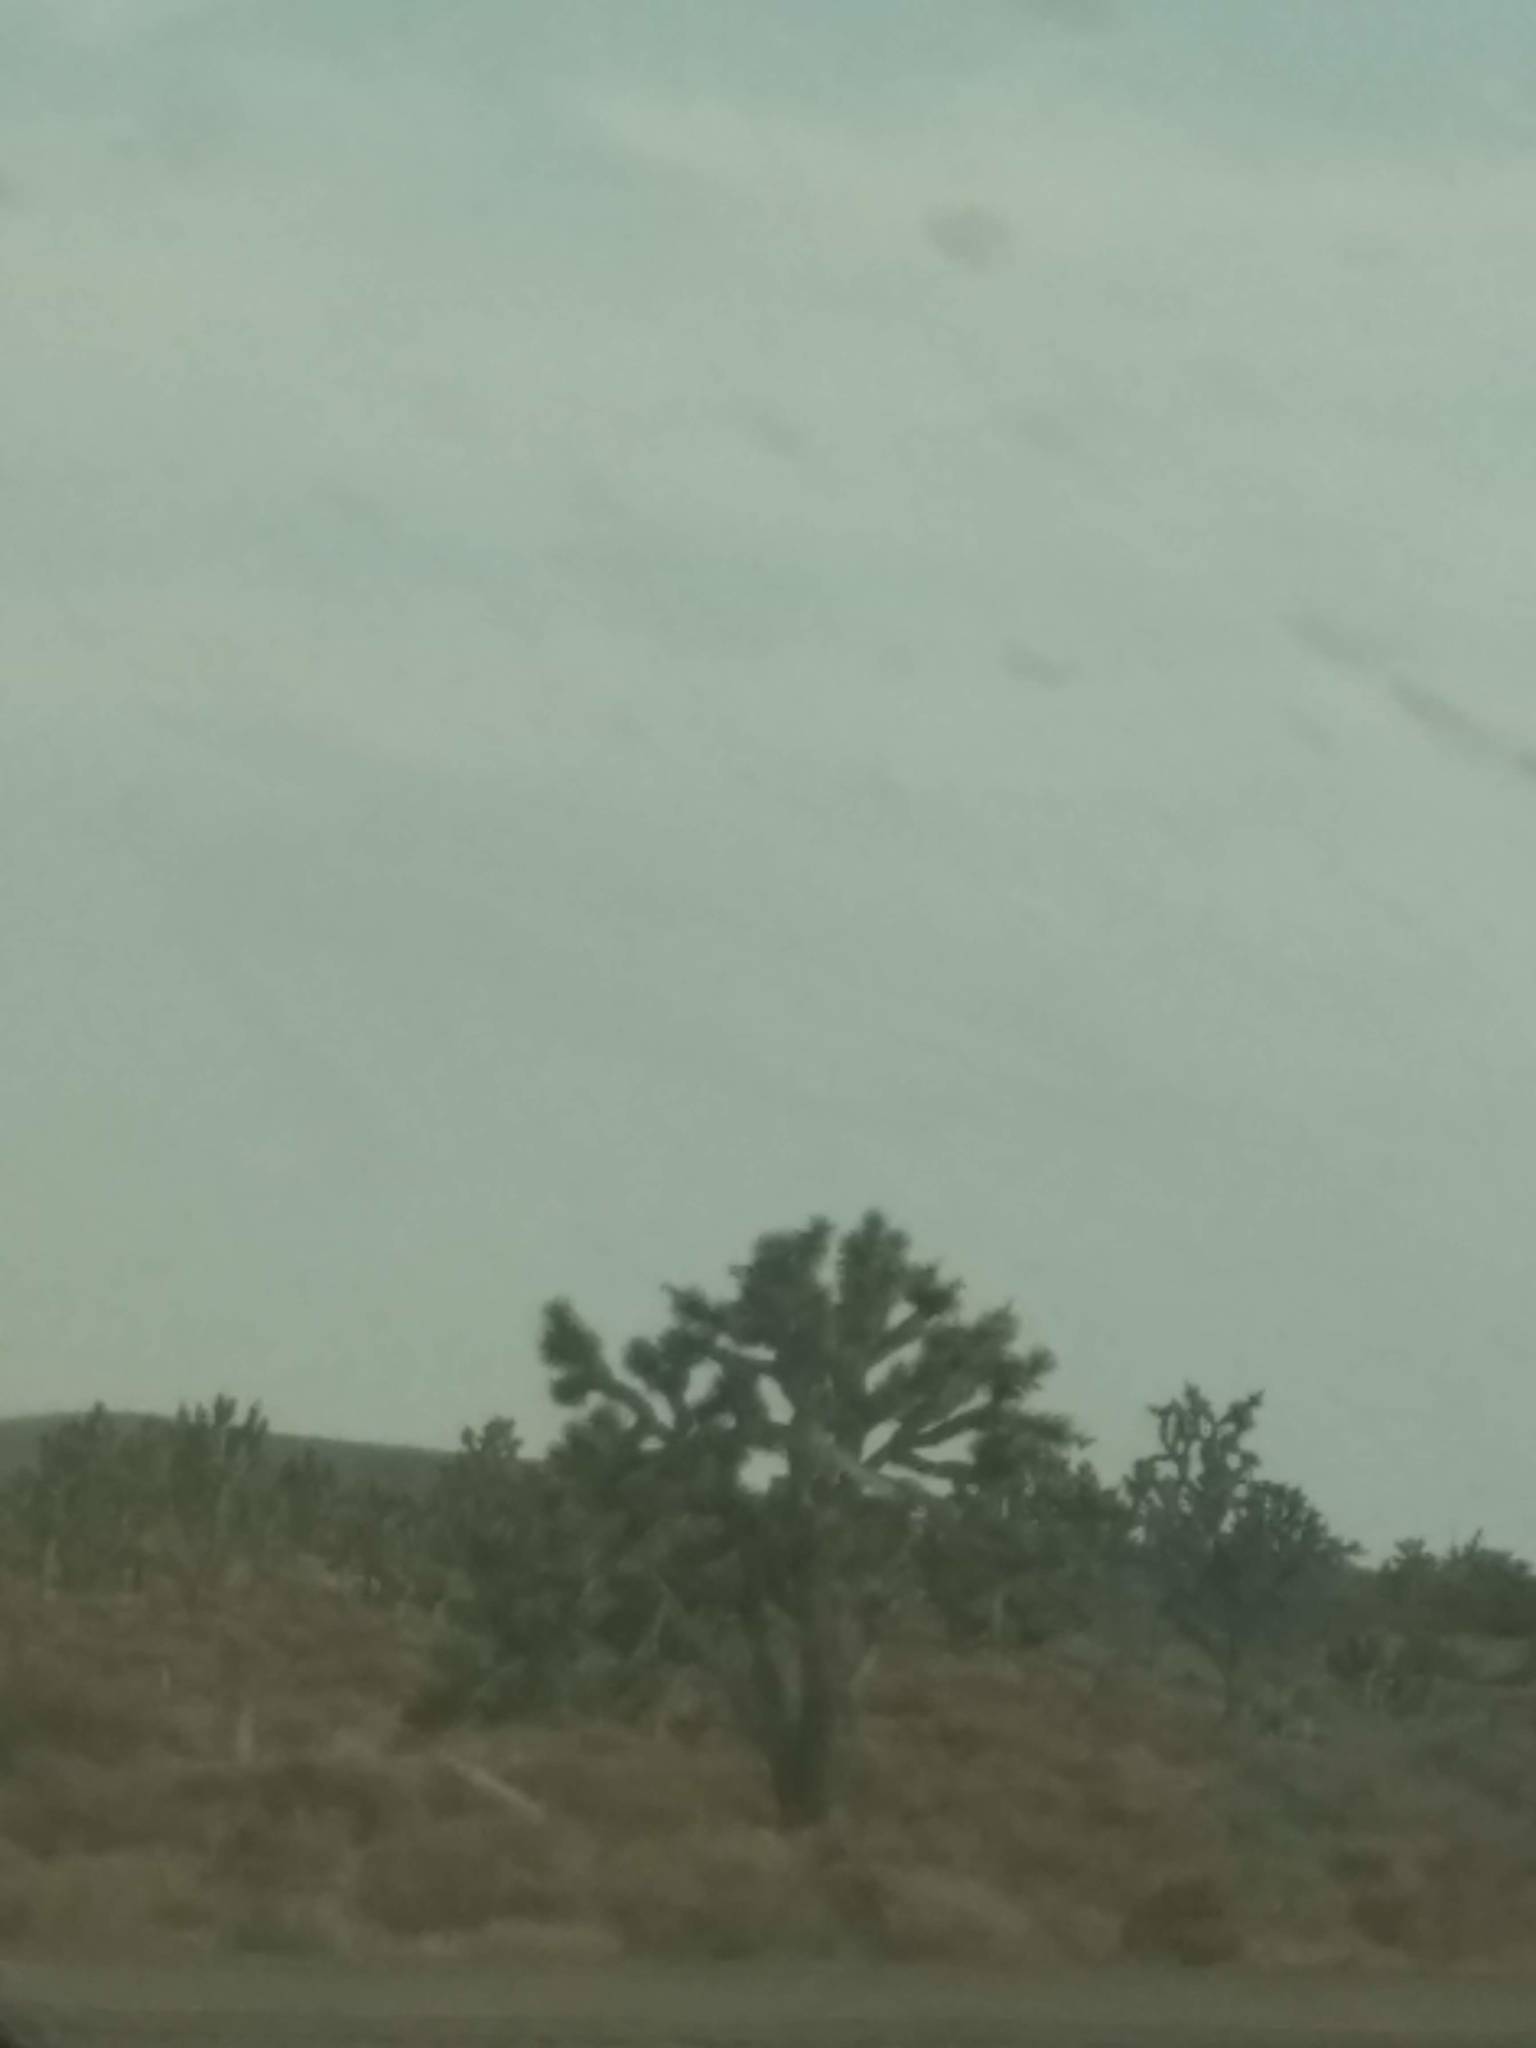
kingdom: Plantae
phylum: Tracheophyta
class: Liliopsida
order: Asparagales
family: Asparagaceae
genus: Yucca
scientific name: Yucca brevifolia
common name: Joshua tree
